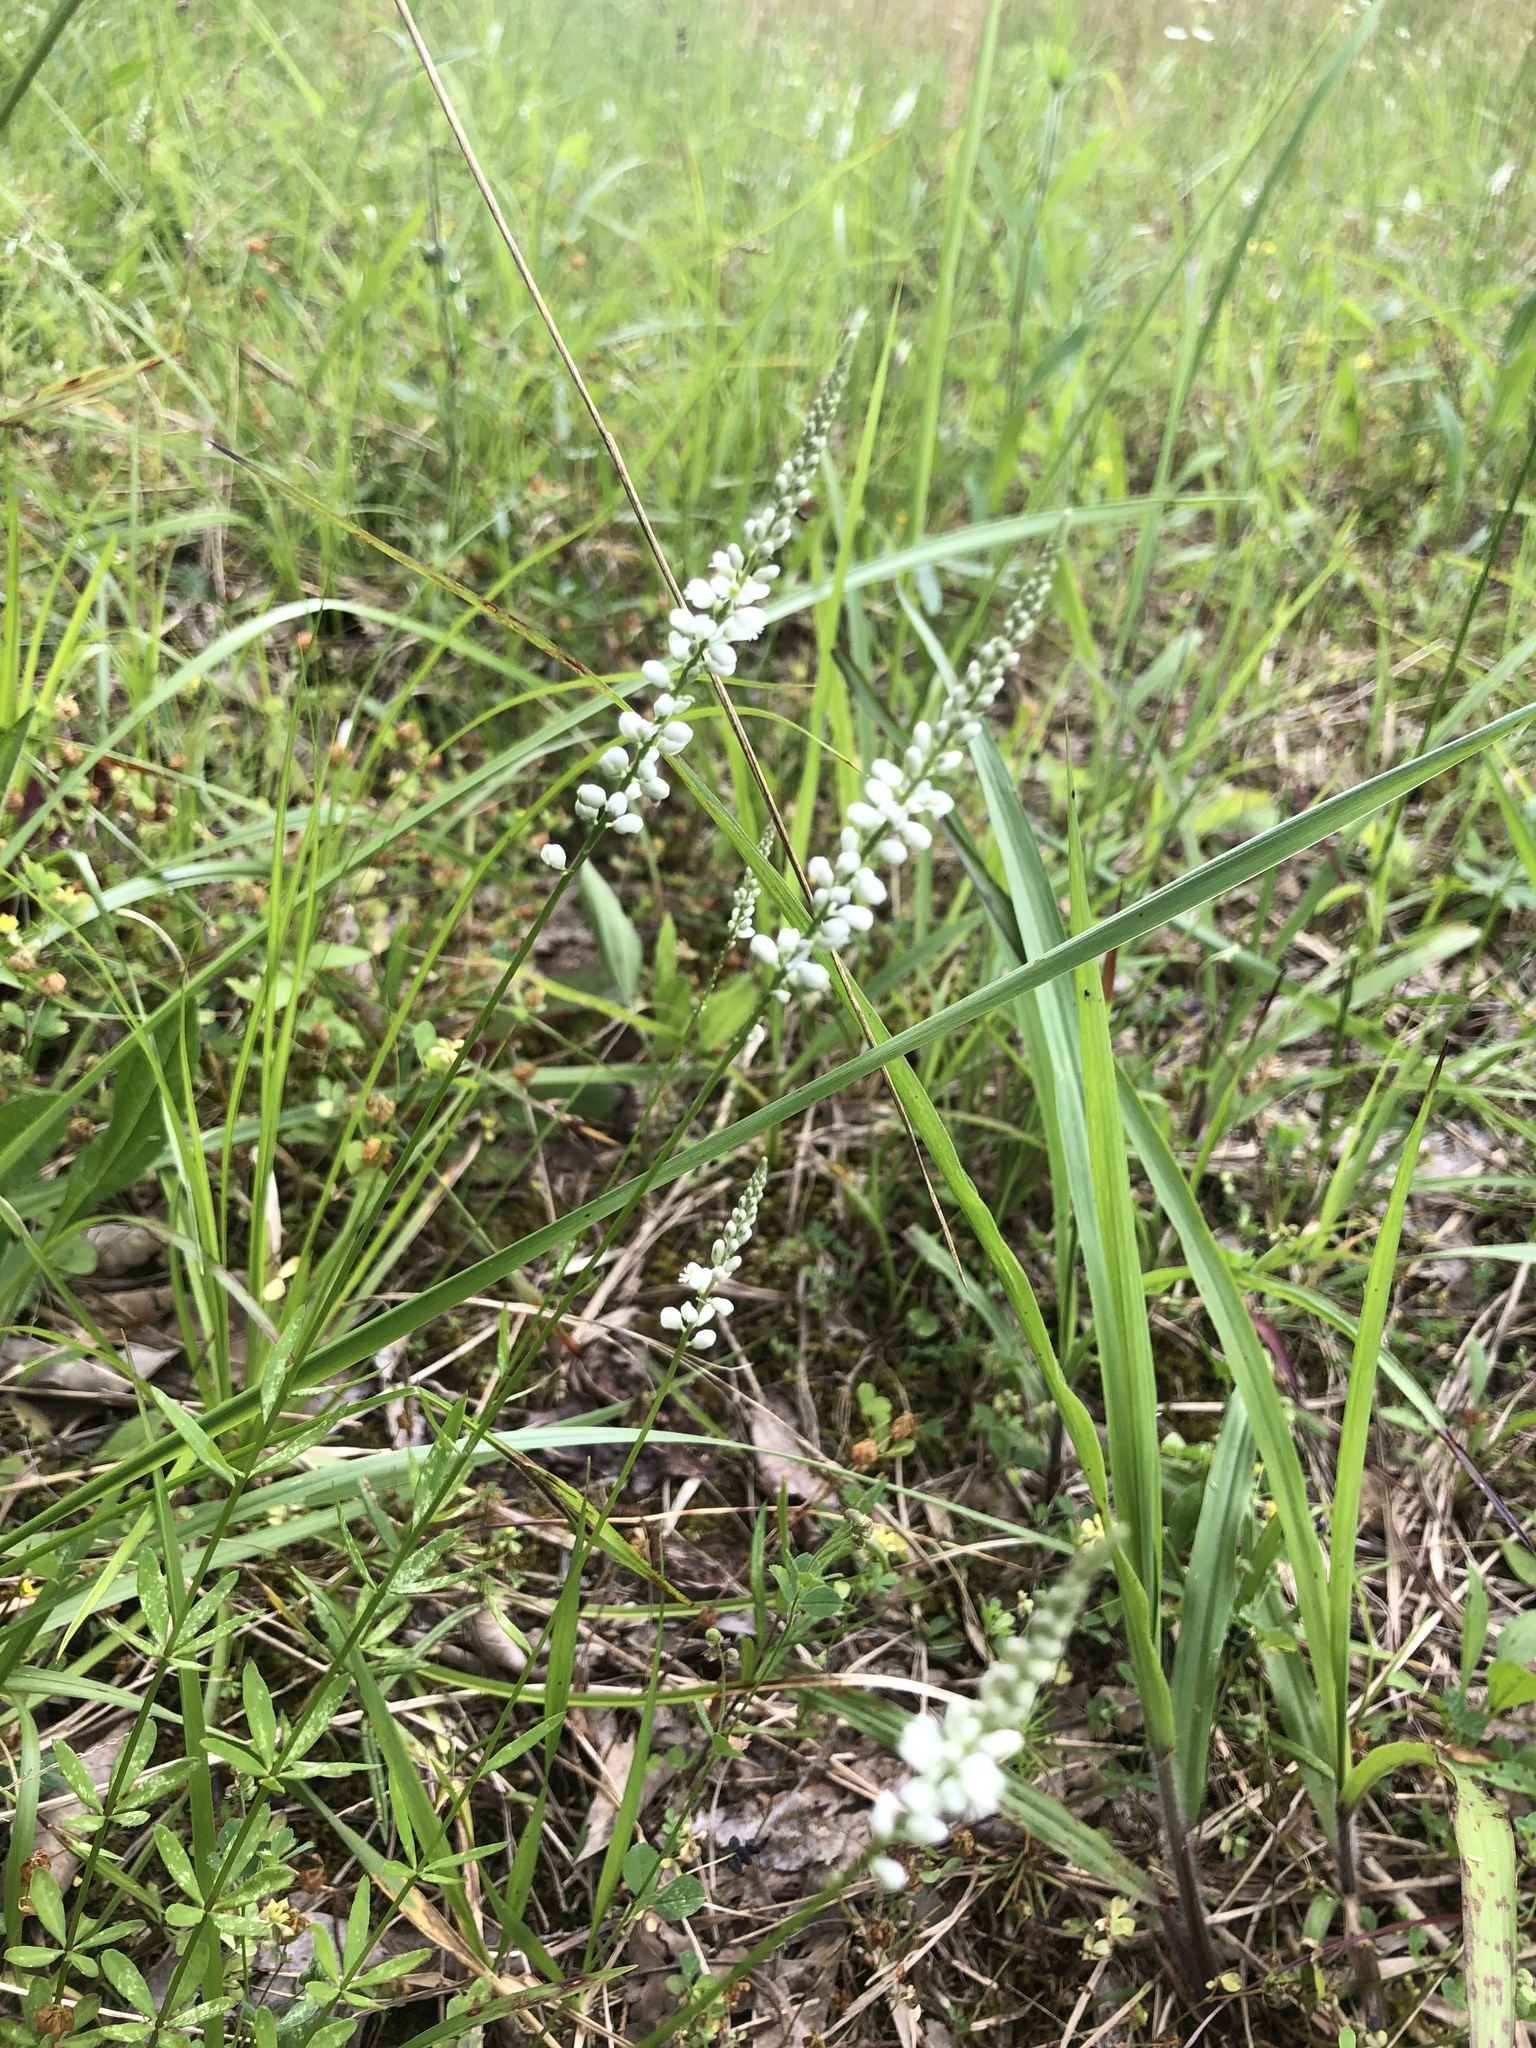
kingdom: Plantae
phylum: Tracheophyta
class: Magnoliopsida
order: Fabales
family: Polygalaceae
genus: Polygala
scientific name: Polygala boykinii
